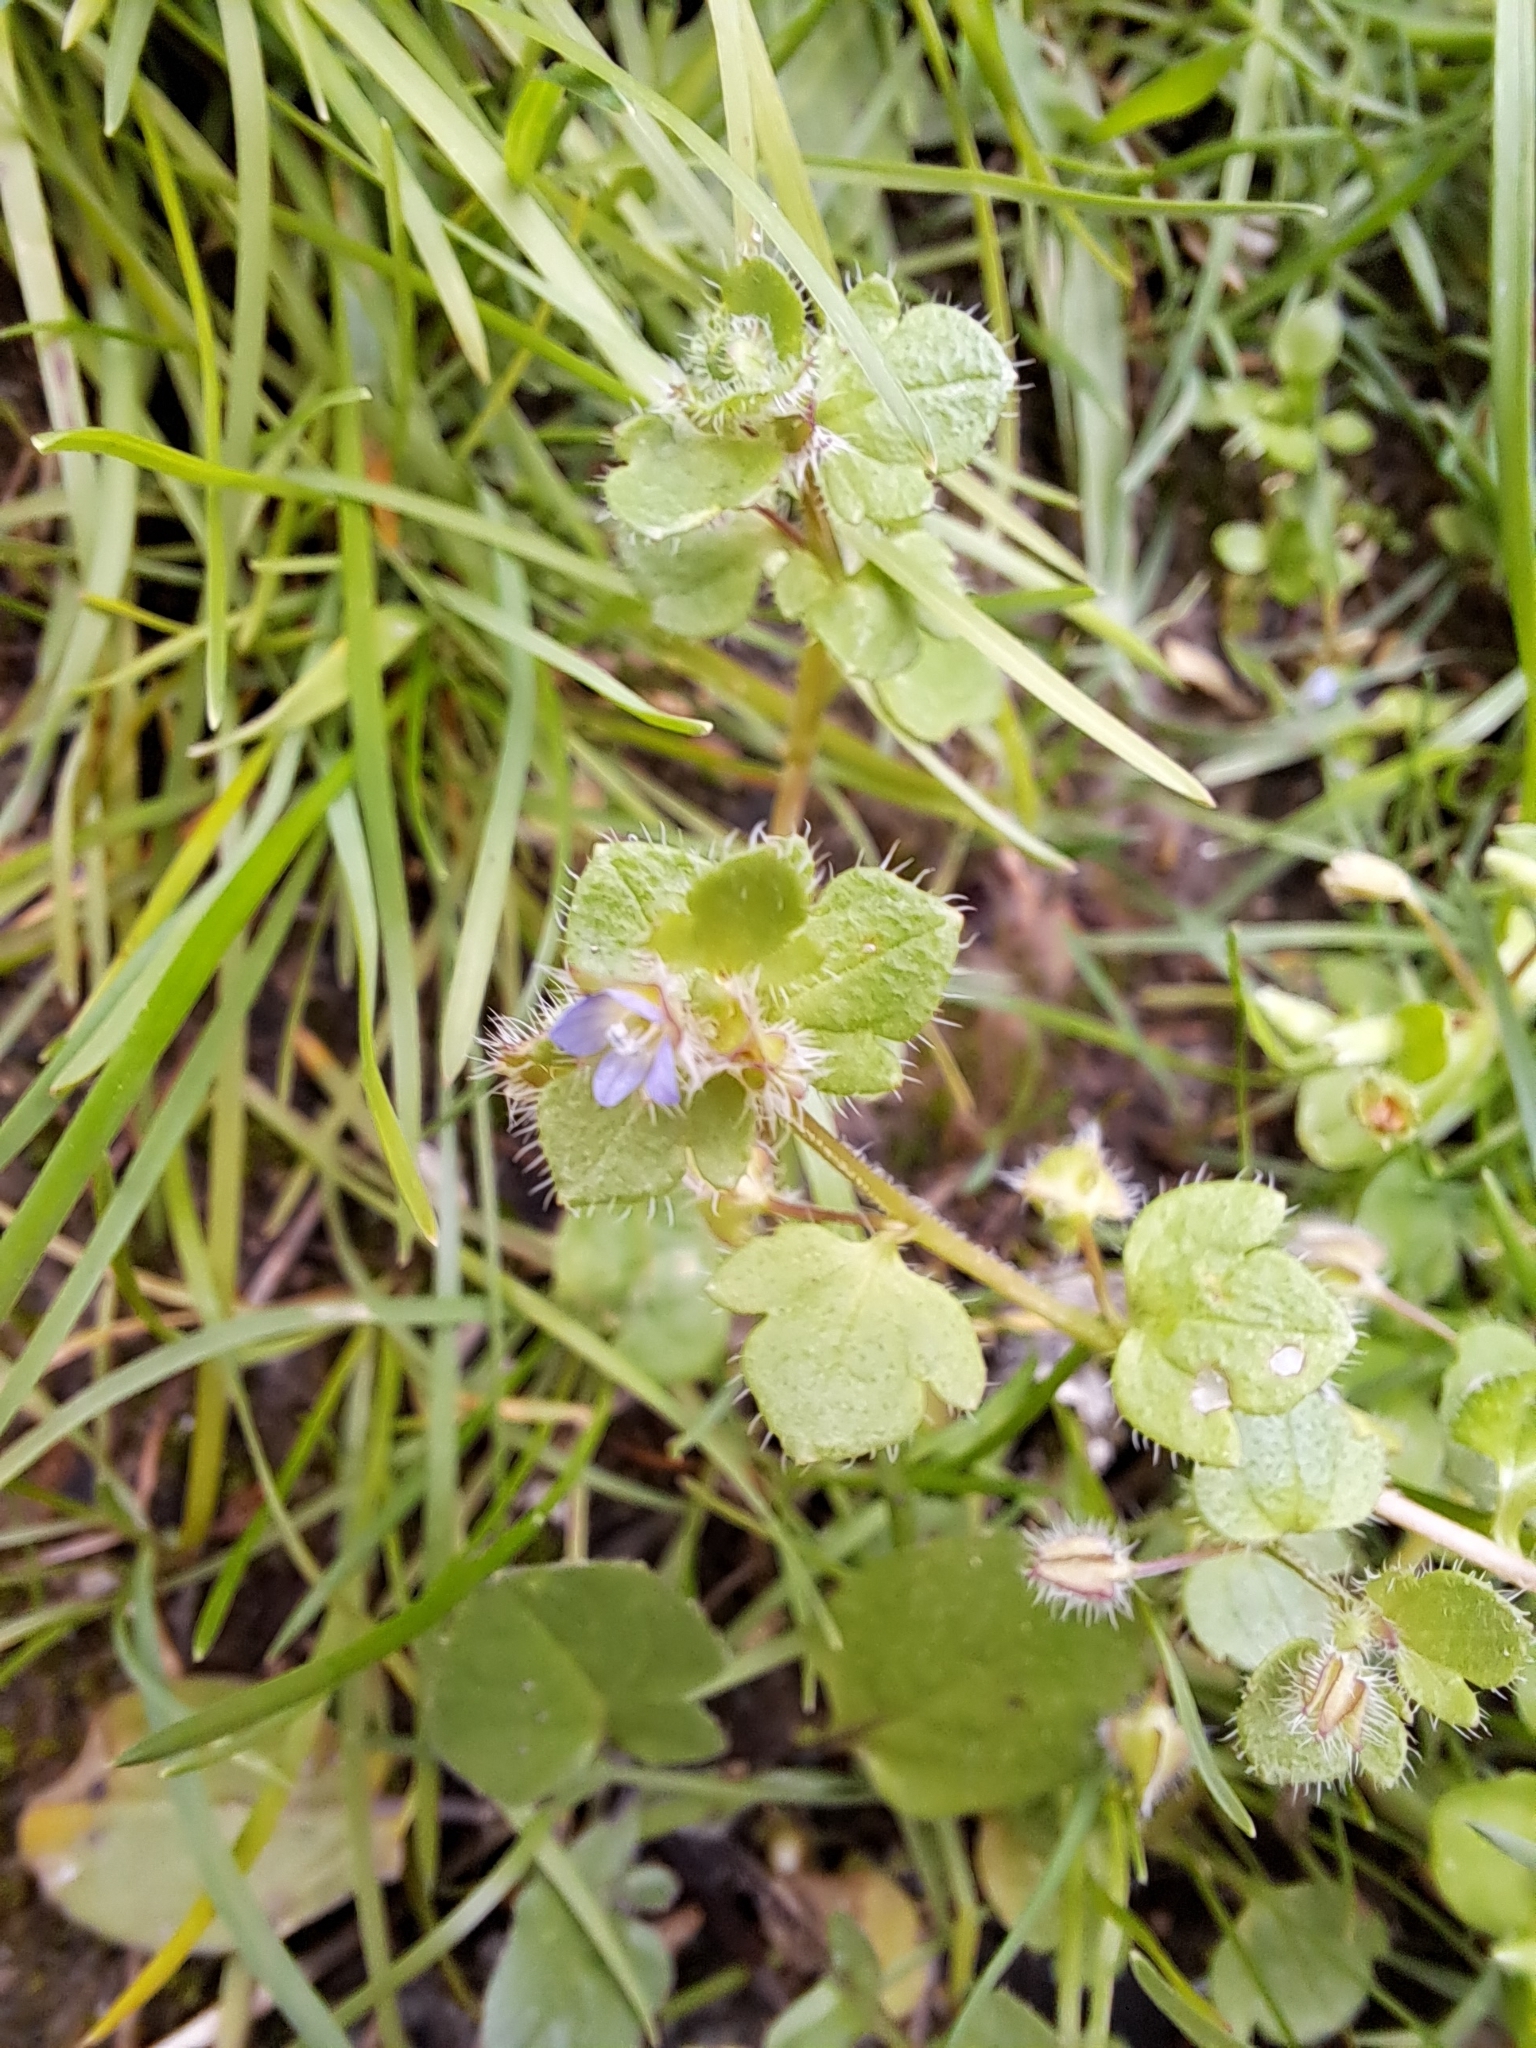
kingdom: Plantae
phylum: Tracheophyta
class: Magnoliopsida
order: Lamiales
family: Plantaginaceae
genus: Veronica
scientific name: Veronica hederifolia
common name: Ivy-leaved speedwell
